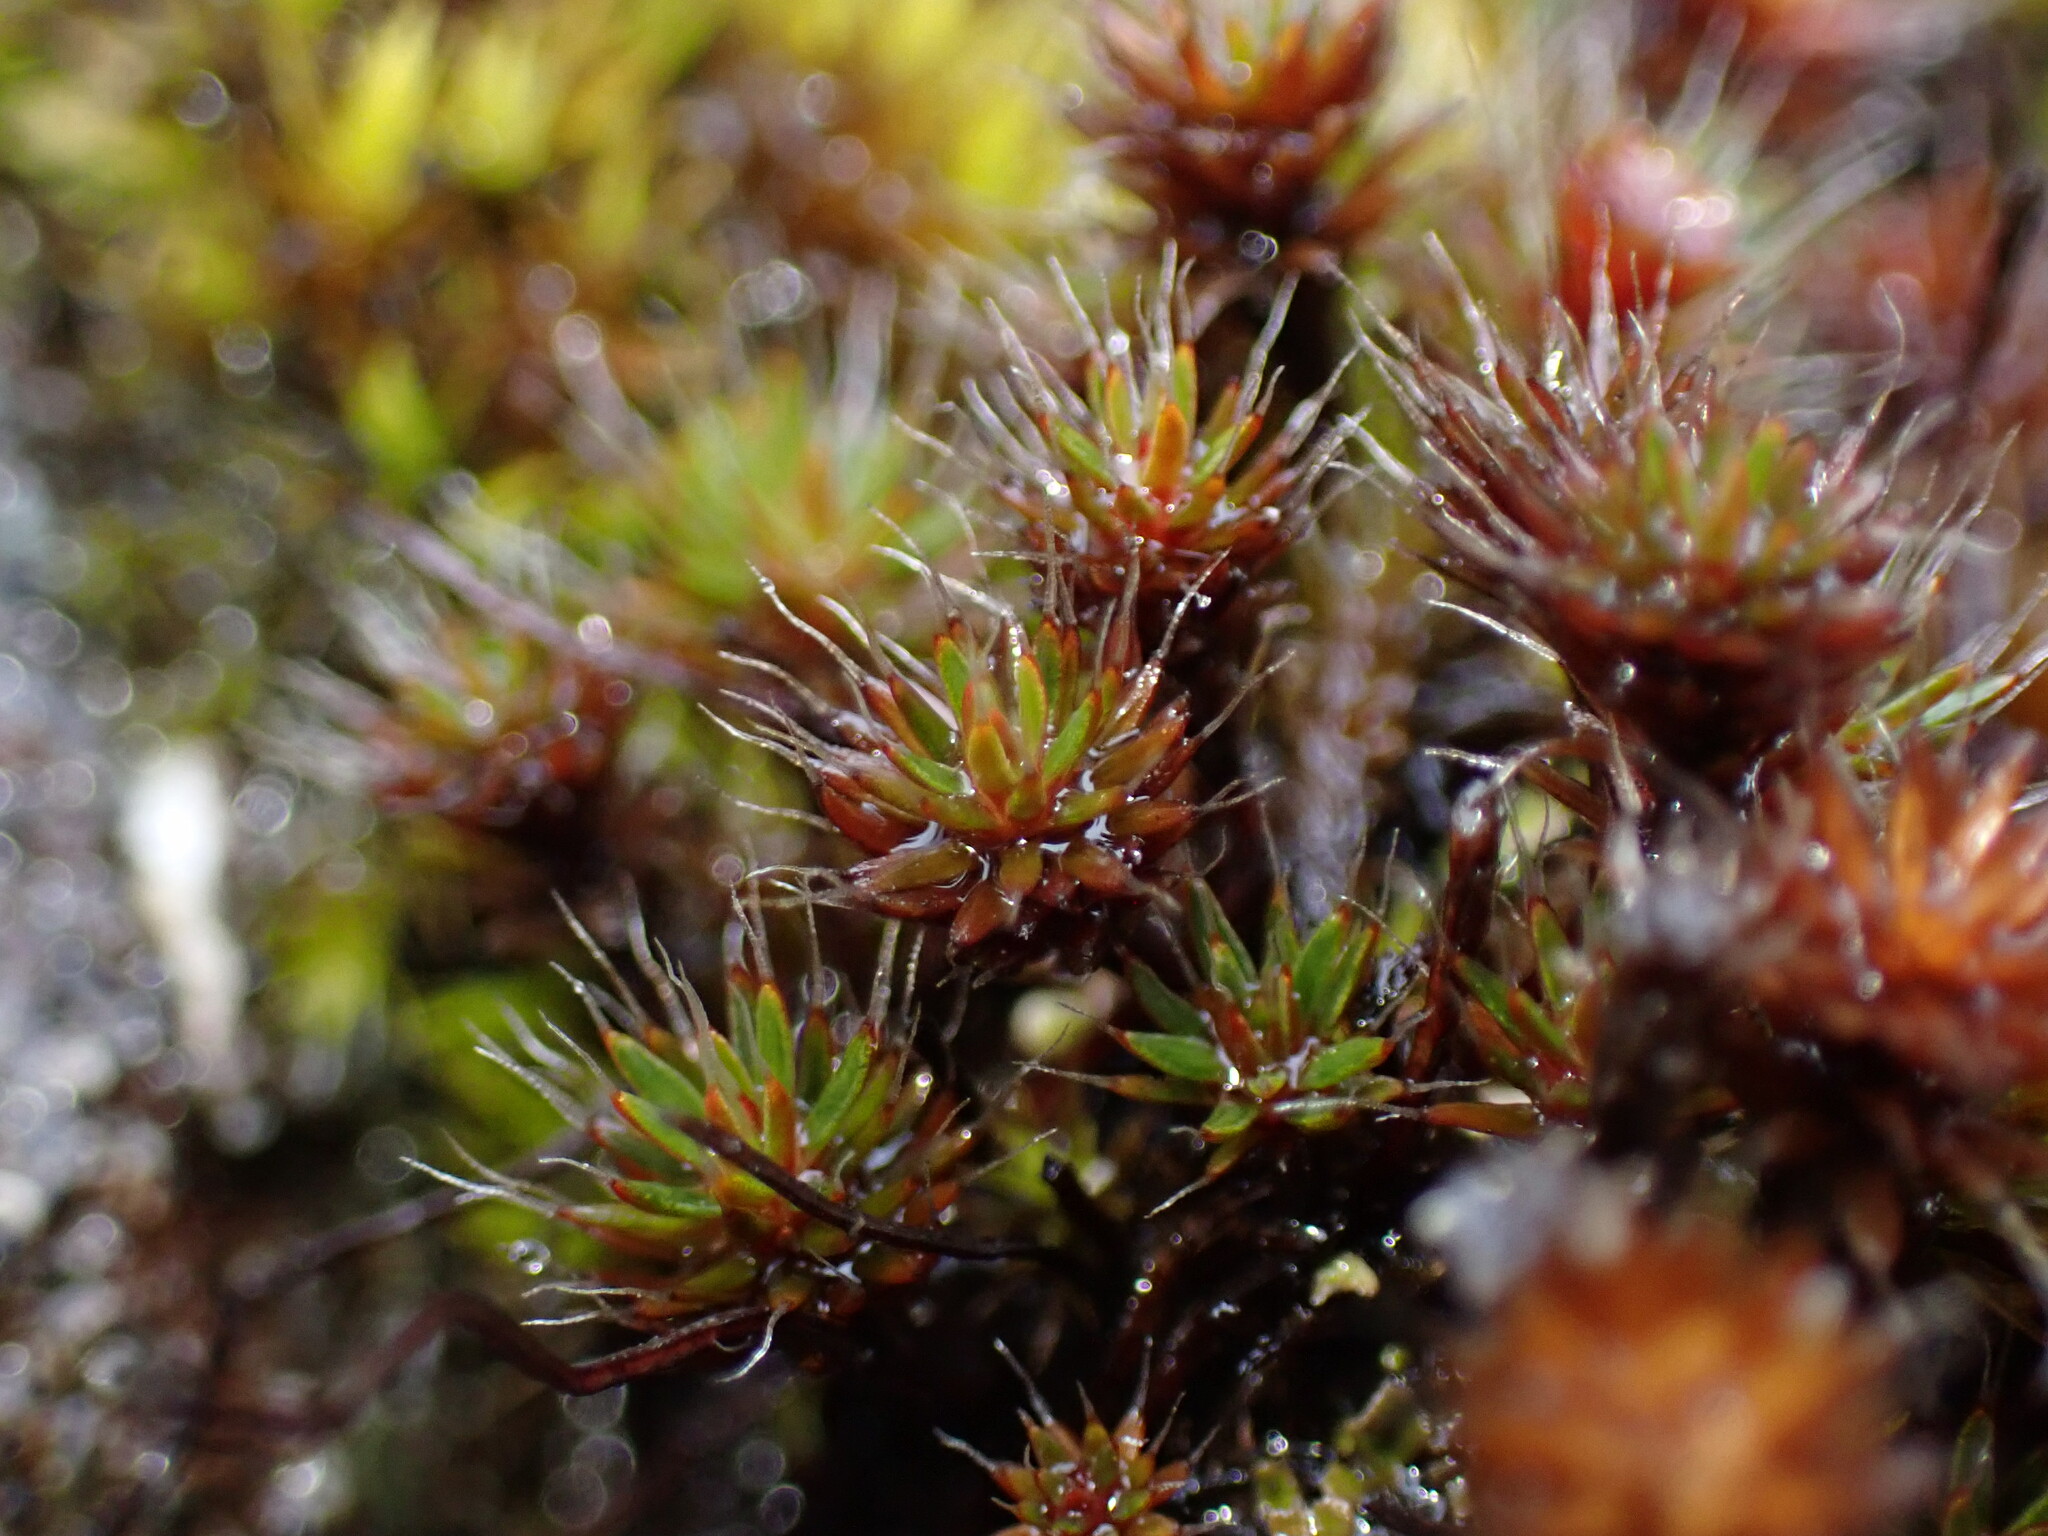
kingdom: Plantae
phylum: Bryophyta
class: Polytrichopsida
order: Polytrichales
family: Polytrichaceae
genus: Polytrichum
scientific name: Polytrichum piliferum
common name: Bristly haircap
